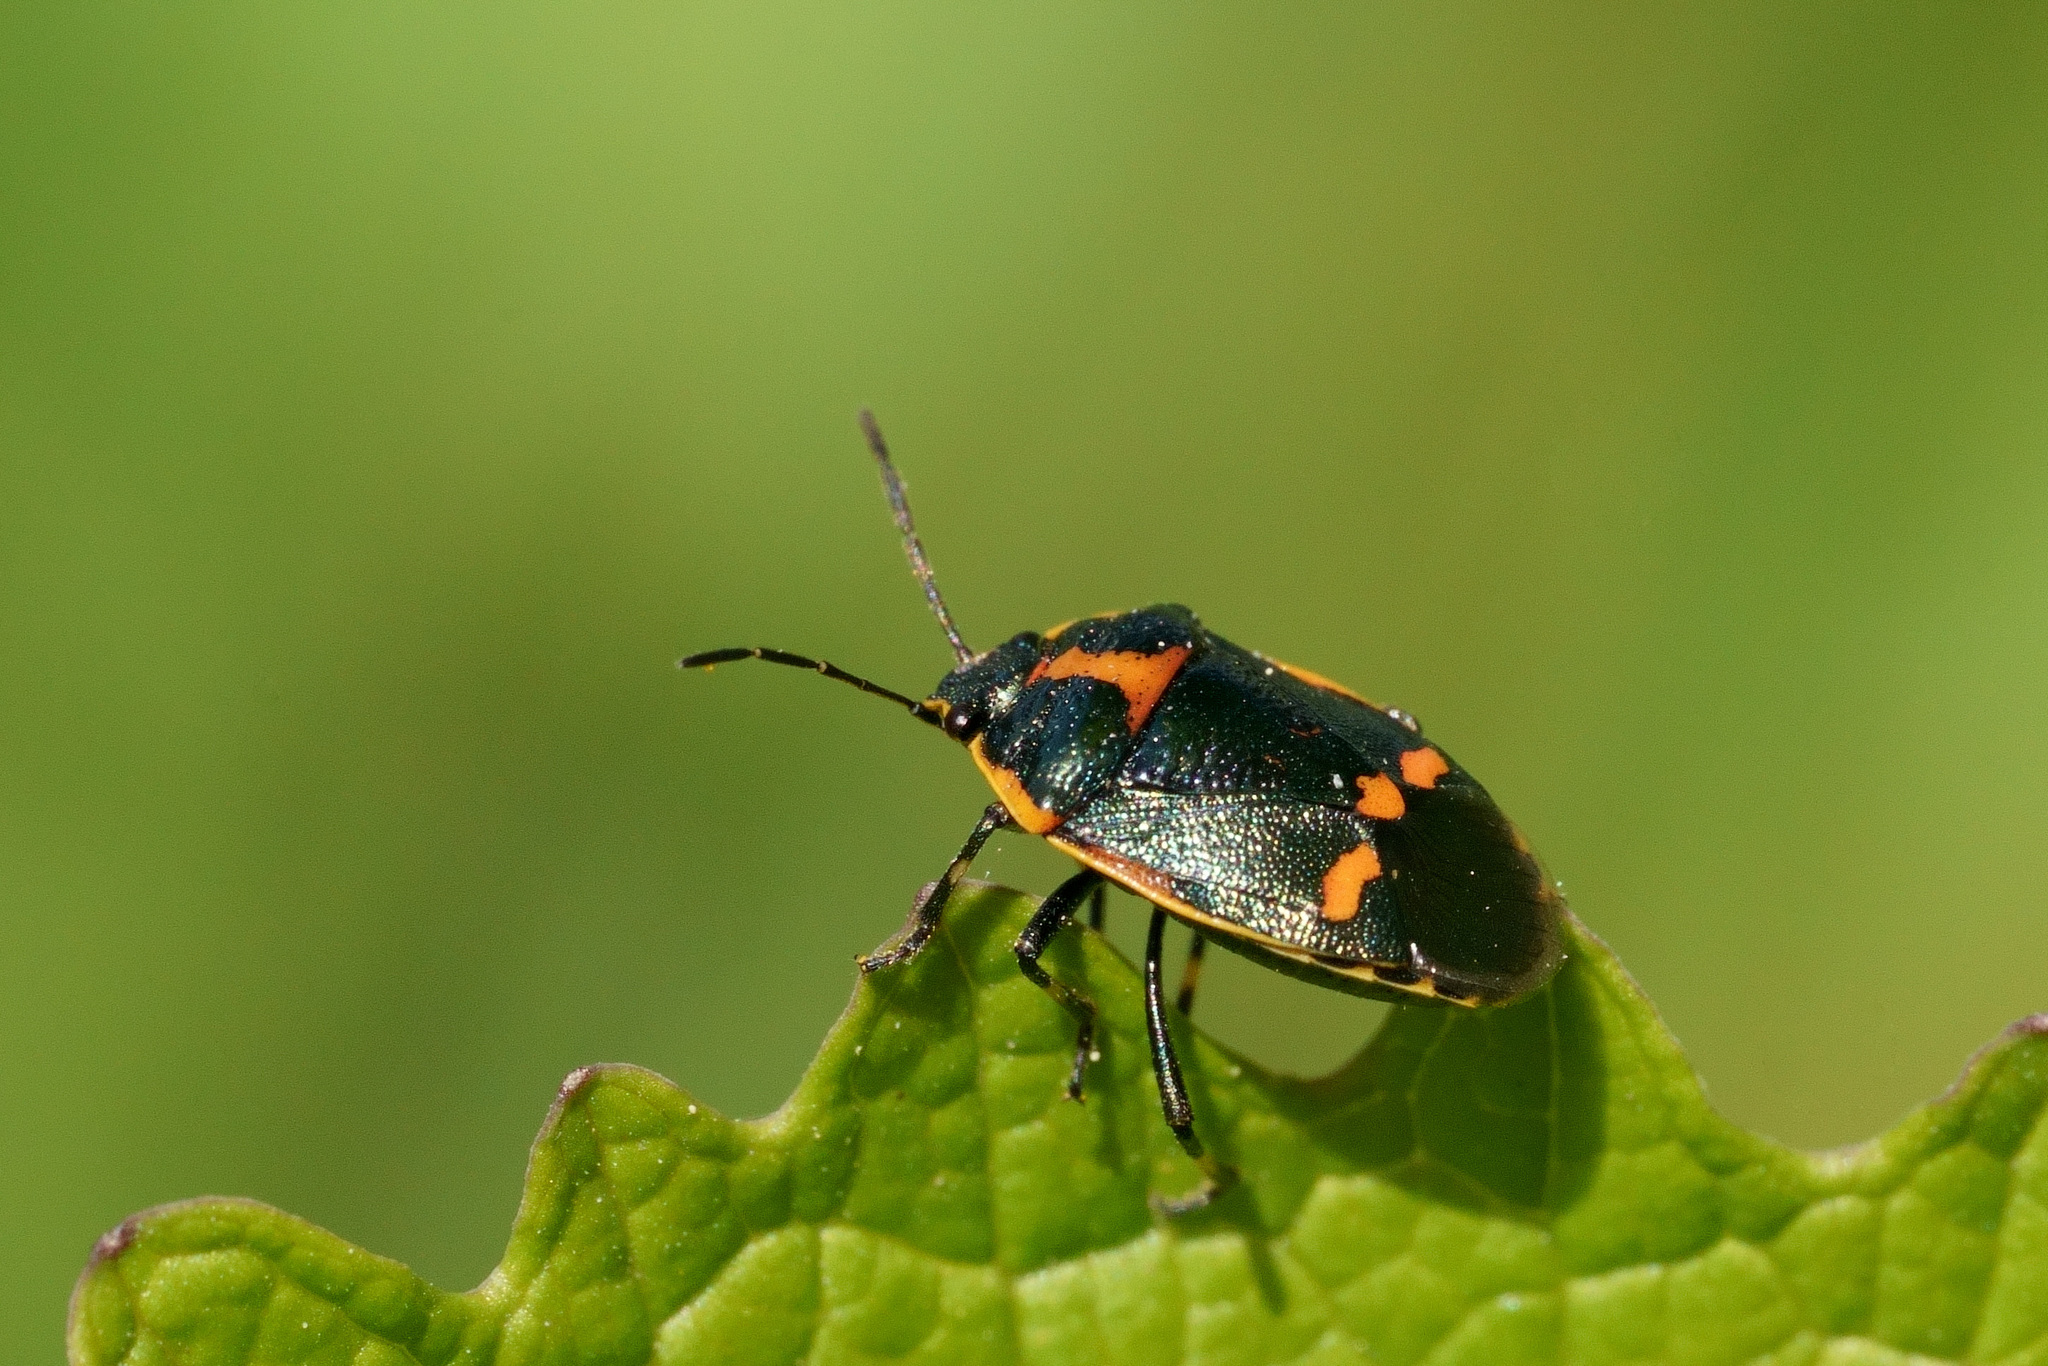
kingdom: Animalia
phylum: Arthropoda
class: Insecta
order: Hemiptera
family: Pentatomidae
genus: Eurydema
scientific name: Eurydema oleracea
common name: Cabbage bug
